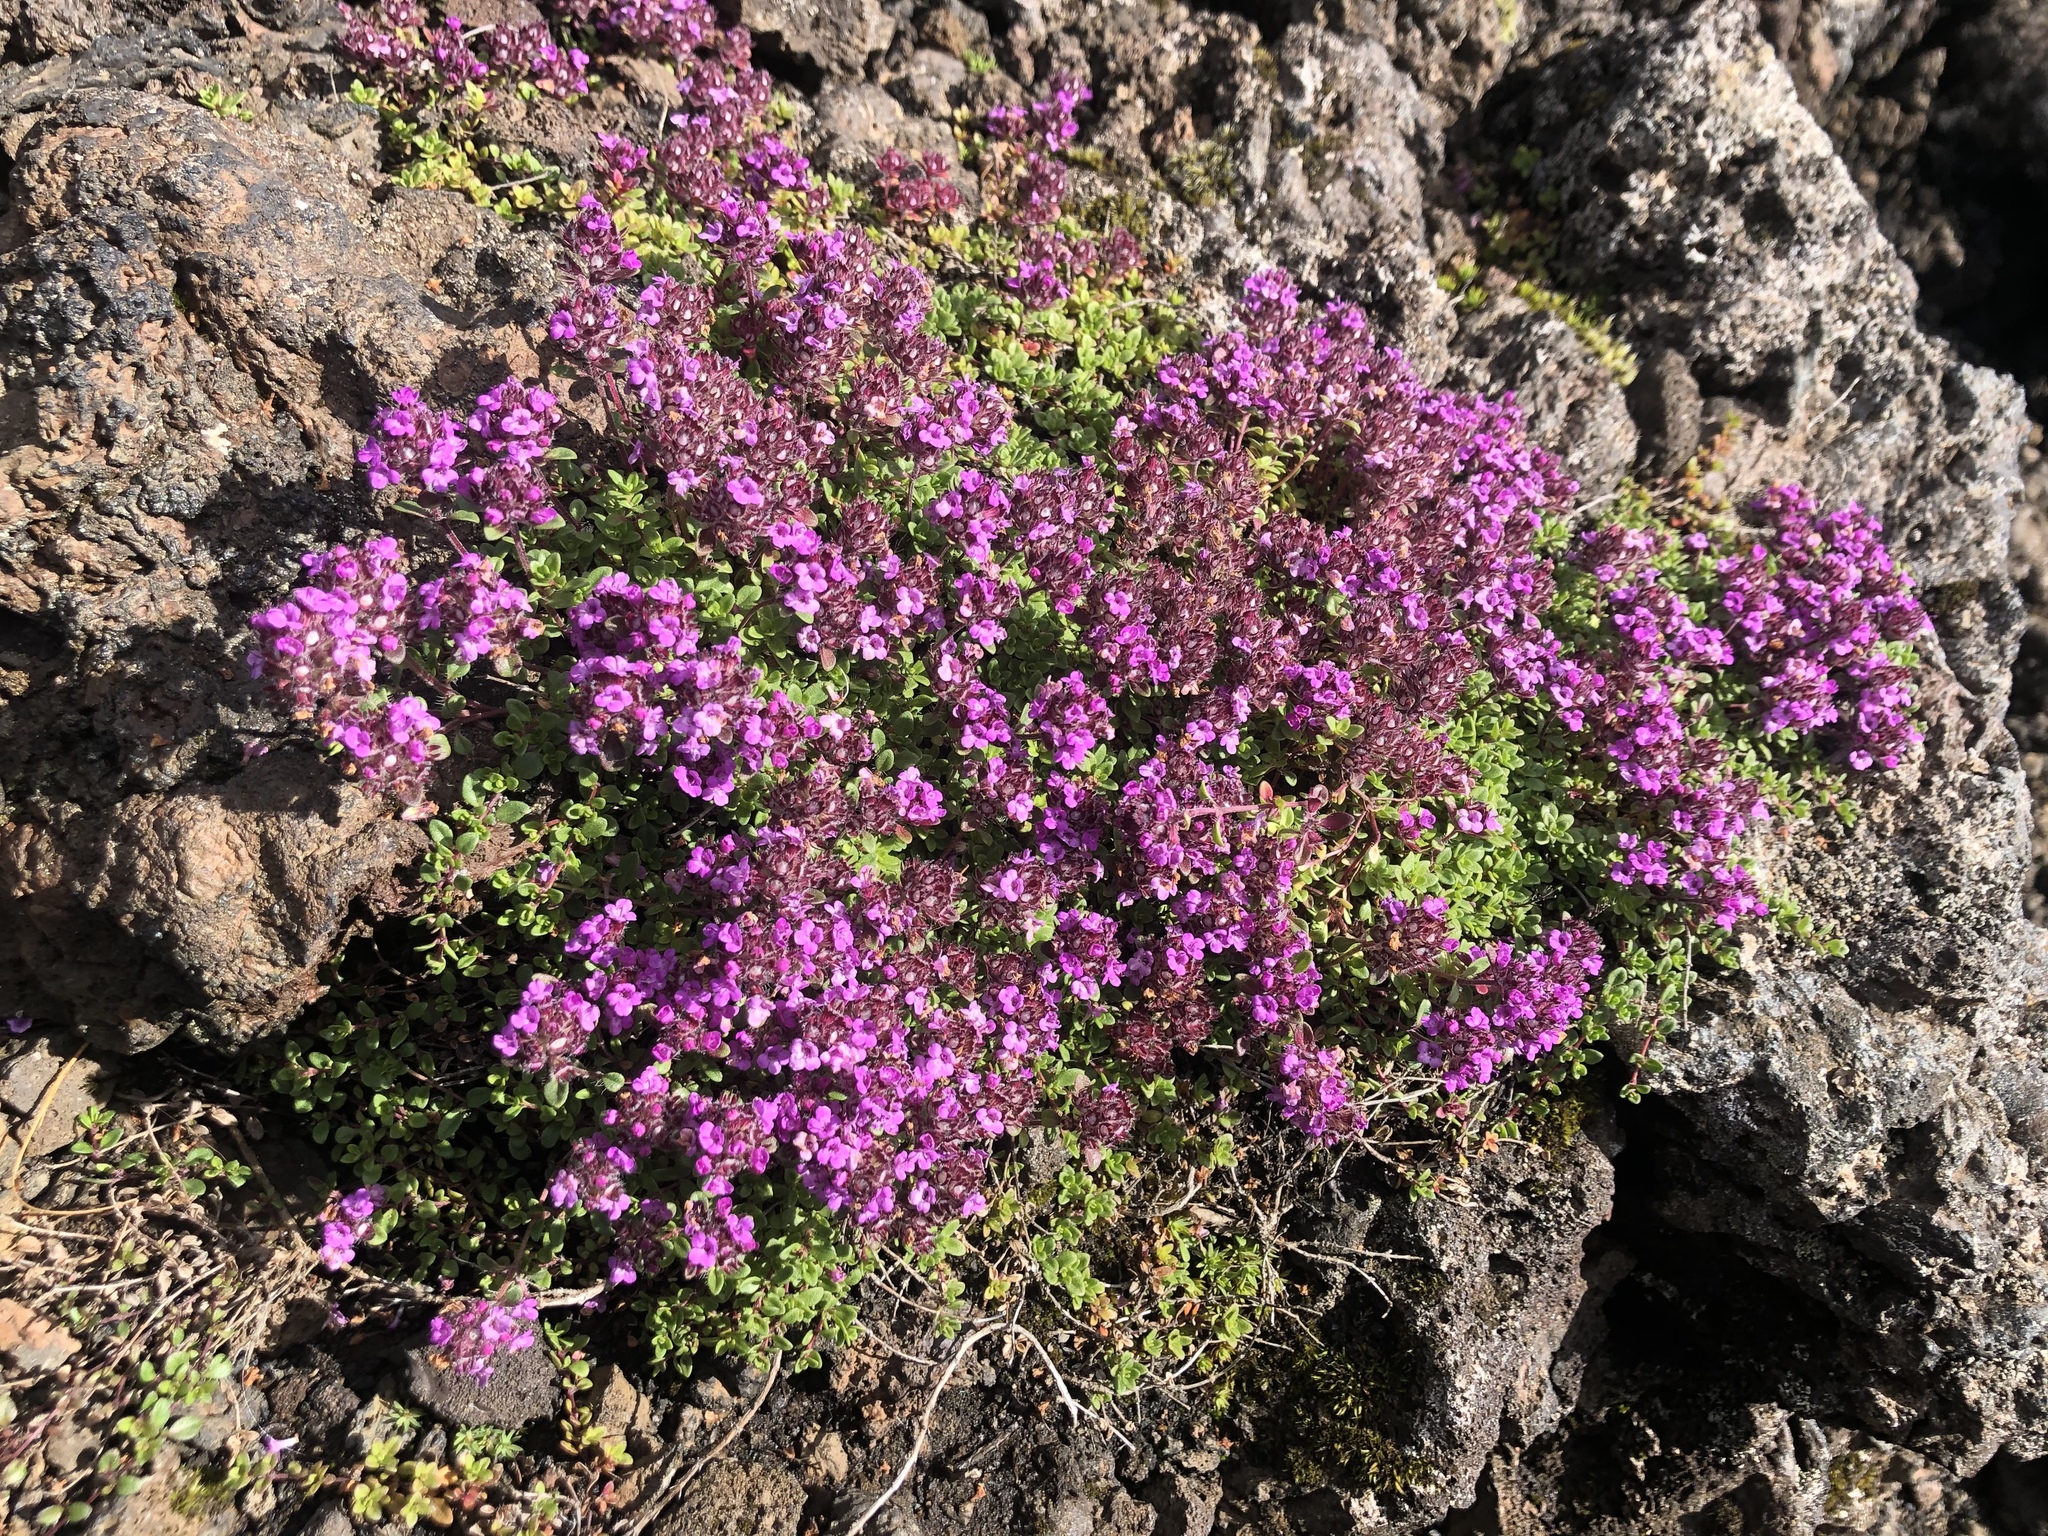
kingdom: Plantae
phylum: Tracheophyta
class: Magnoliopsida
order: Lamiales
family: Lamiaceae
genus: Thymus
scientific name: Thymus praecox
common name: Wild thyme
